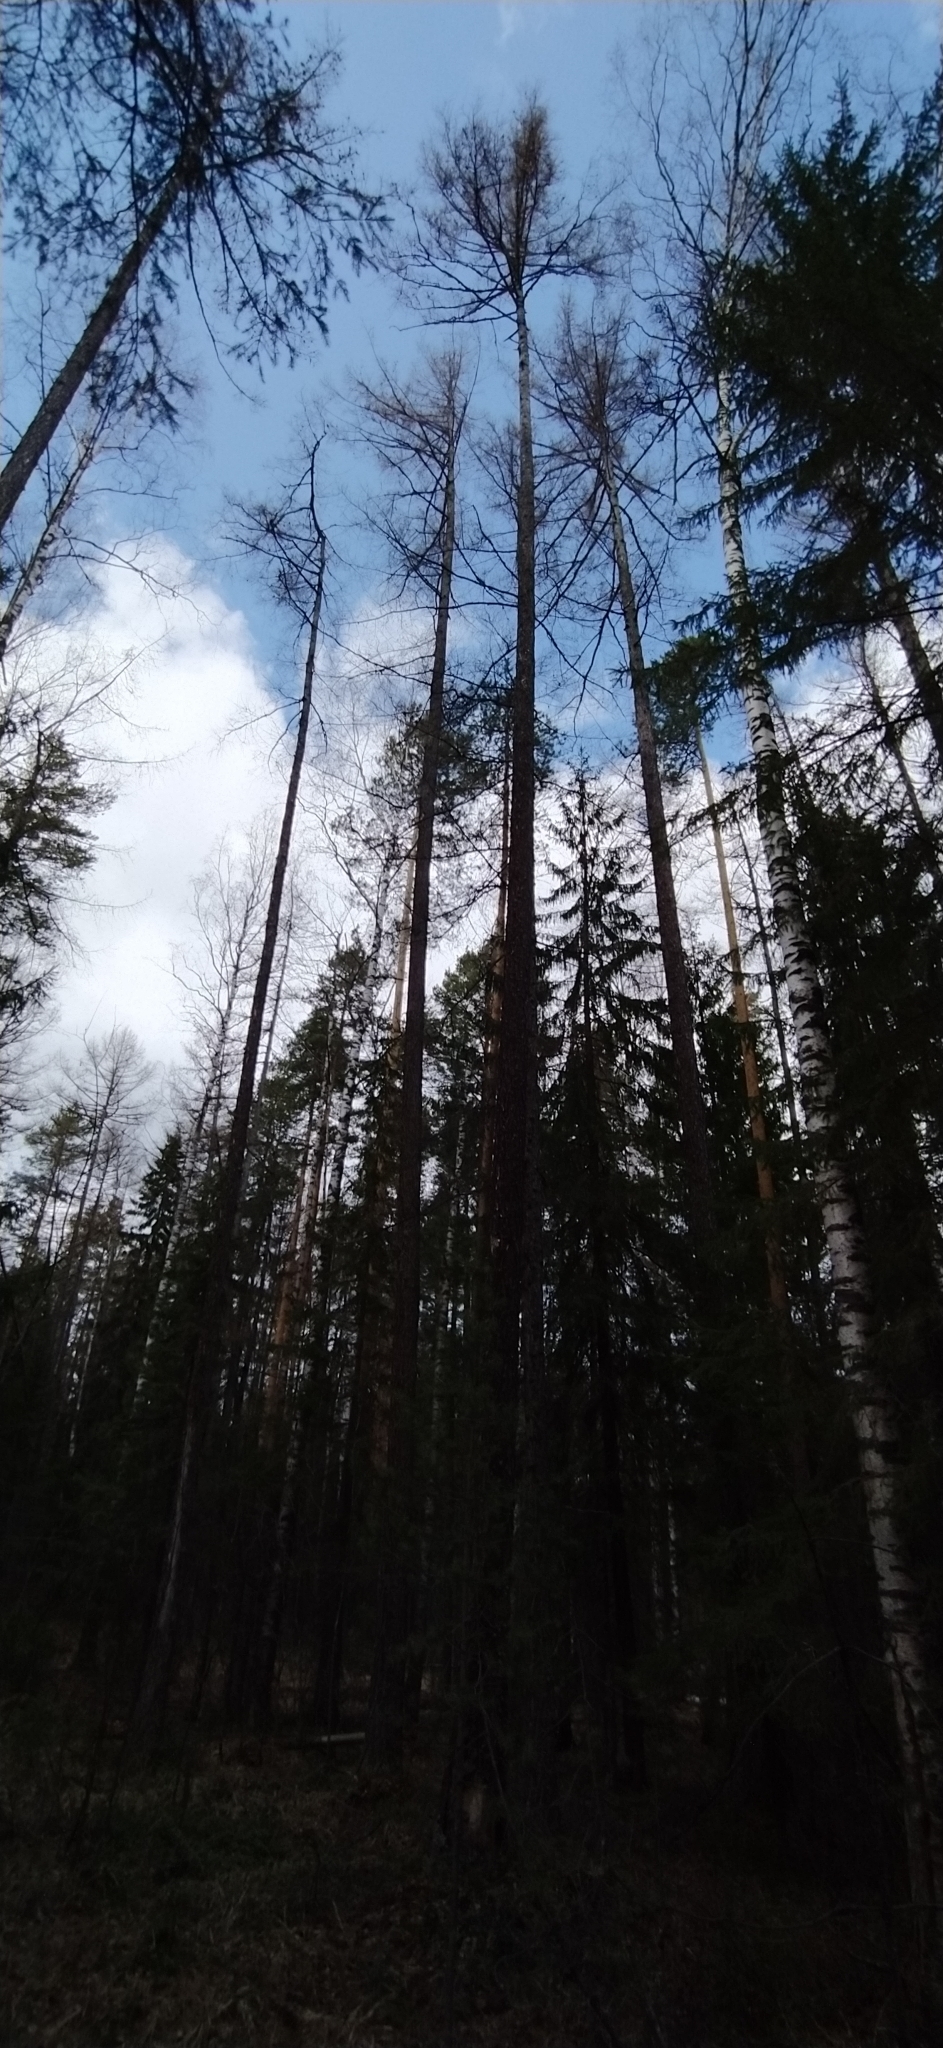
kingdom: Plantae
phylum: Tracheophyta
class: Pinopsida
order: Pinales
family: Pinaceae
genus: Larix
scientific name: Larix sibirica
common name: Siberian larch
